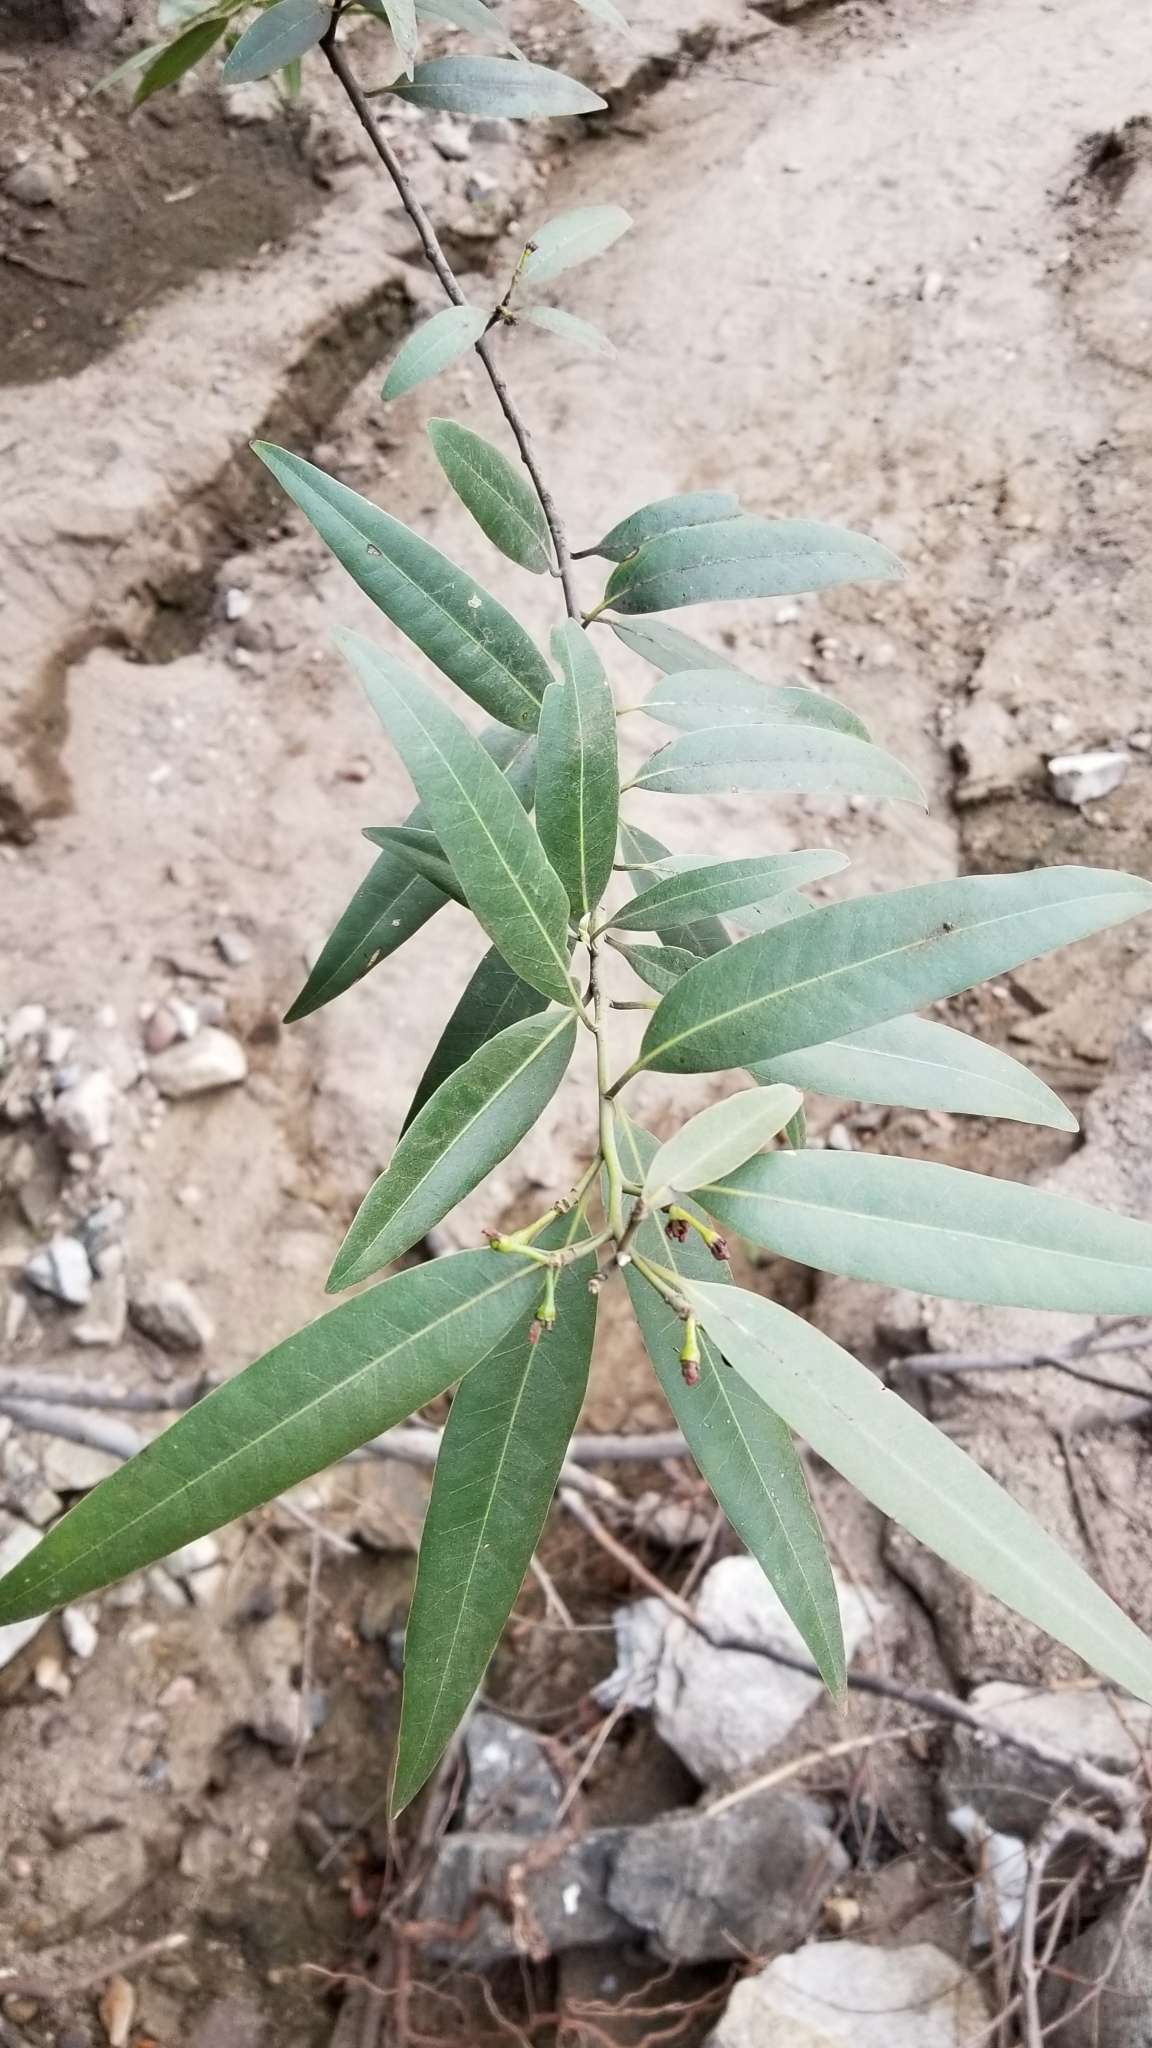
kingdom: Plantae
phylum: Tracheophyta
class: Magnoliopsida
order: Laurales
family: Lauraceae
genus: Umbellularia
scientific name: Umbellularia californica
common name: California bay
